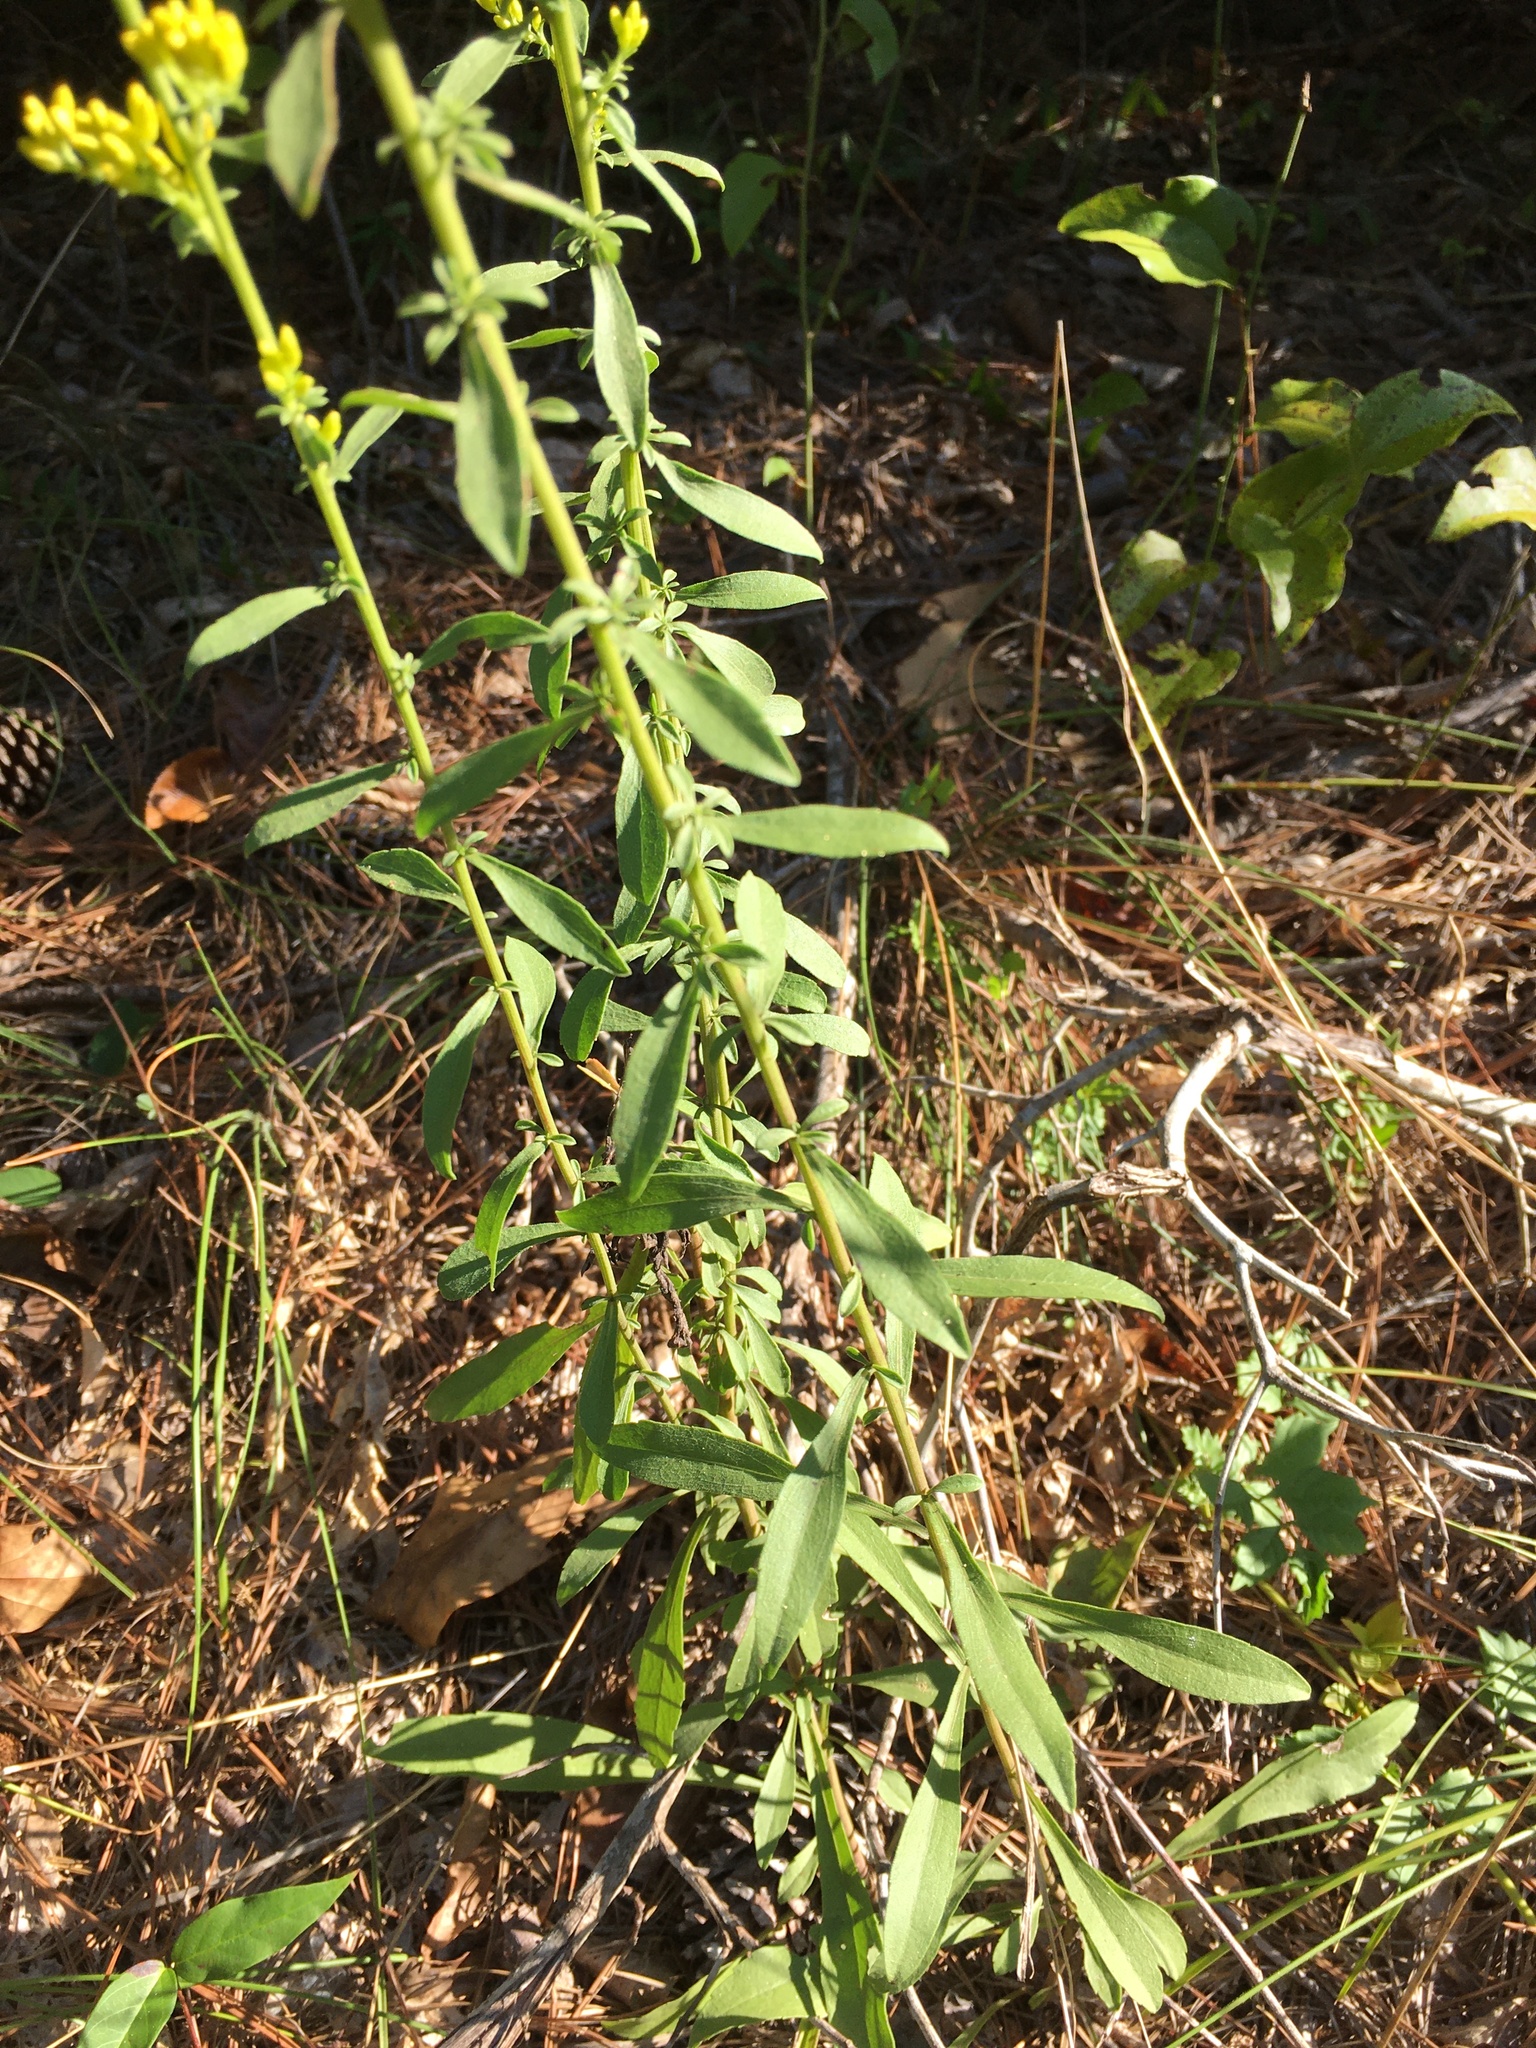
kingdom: Plantae
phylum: Tracheophyta
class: Magnoliopsida
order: Asterales
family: Asteraceae
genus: Solidago
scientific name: Solidago pinetorum
